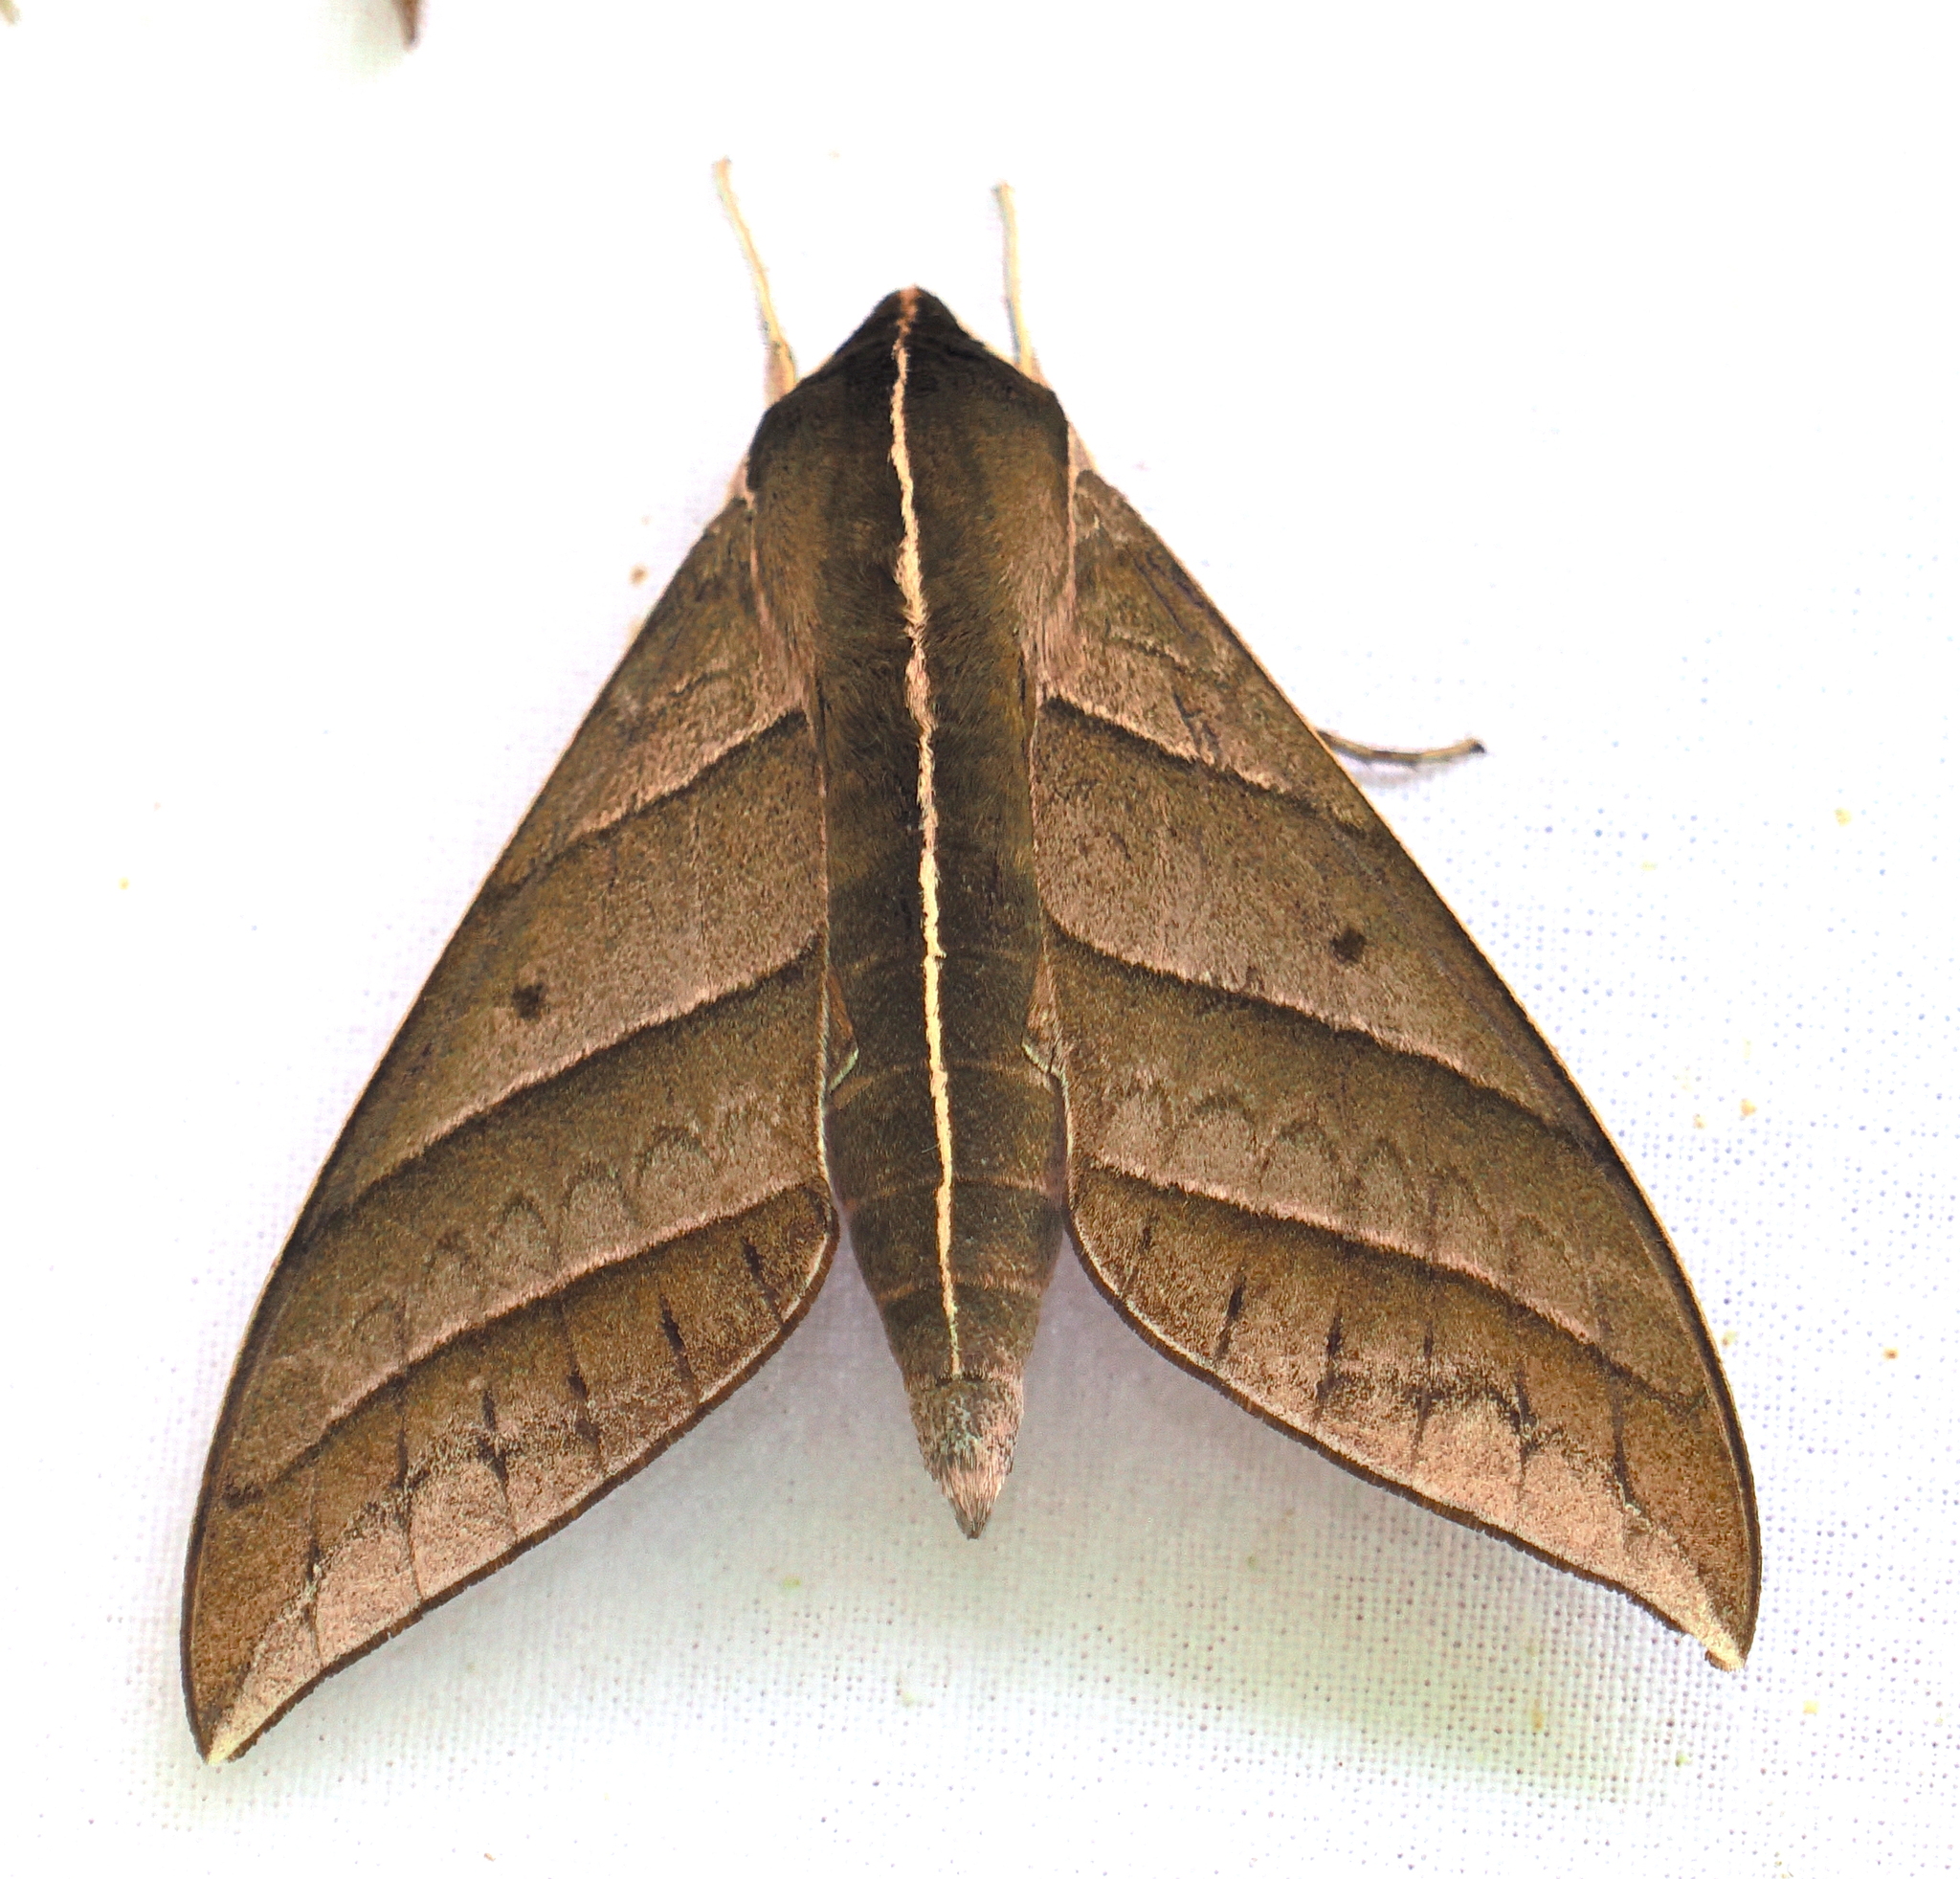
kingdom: Animalia
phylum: Arthropoda
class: Insecta
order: Lepidoptera
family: Sphingidae
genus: Elibia
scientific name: Elibia dolichoides
